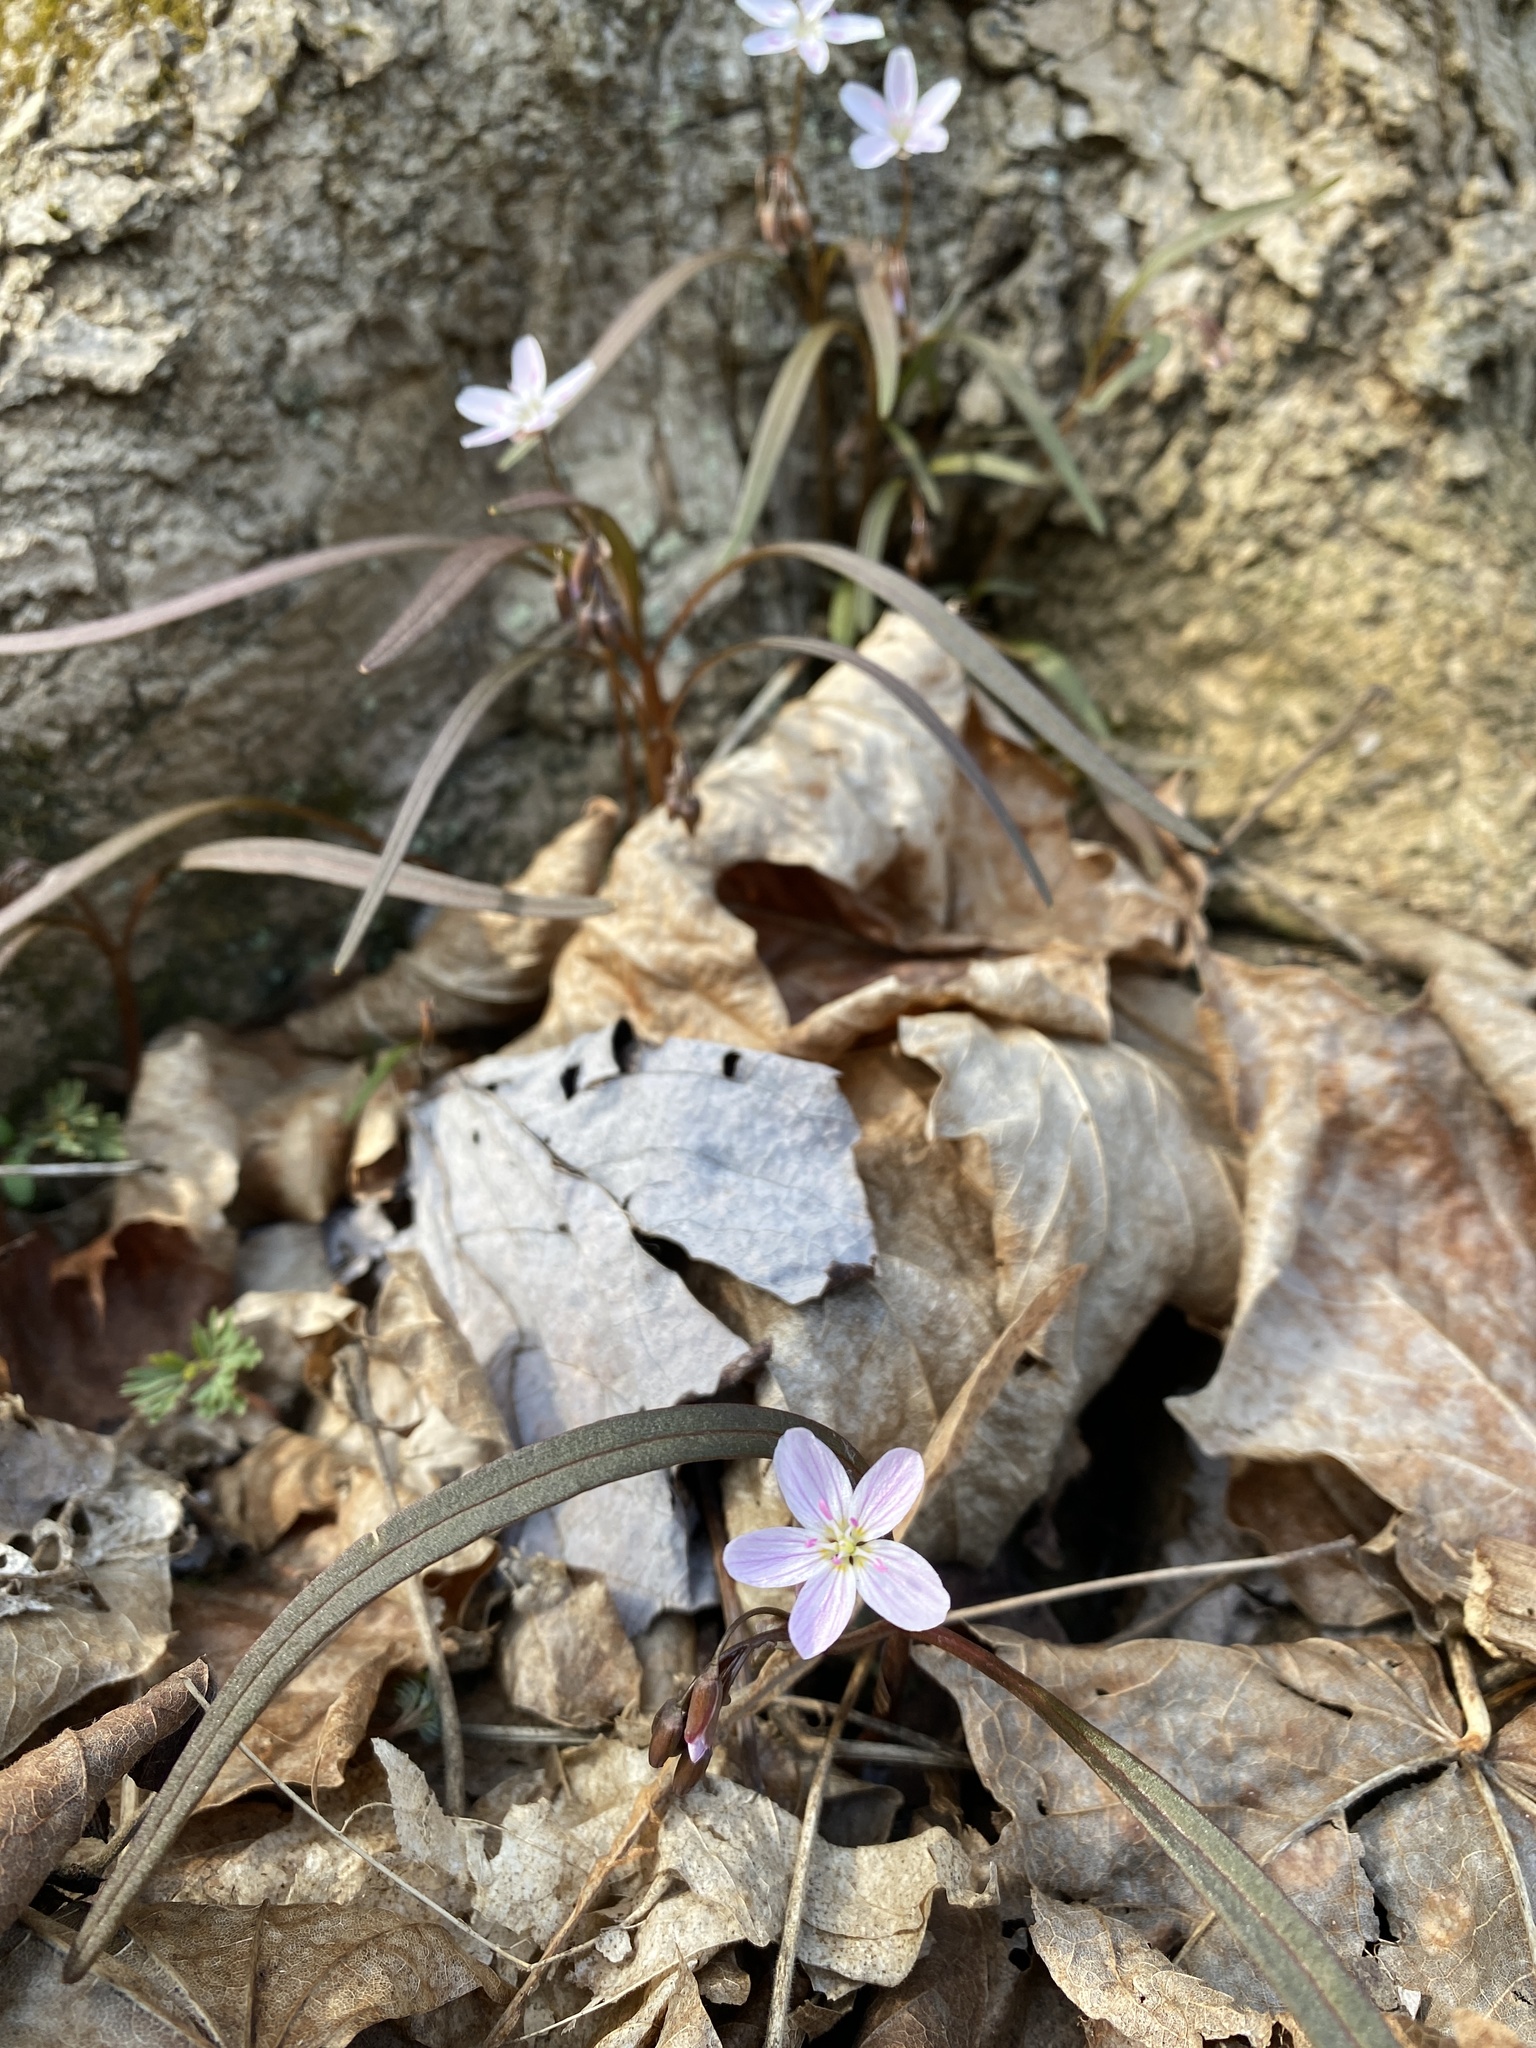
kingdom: Plantae
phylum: Tracheophyta
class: Magnoliopsida
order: Caryophyllales
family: Montiaceae
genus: Claytonia
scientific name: Claytonia virginica
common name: Virginia springbeauty
